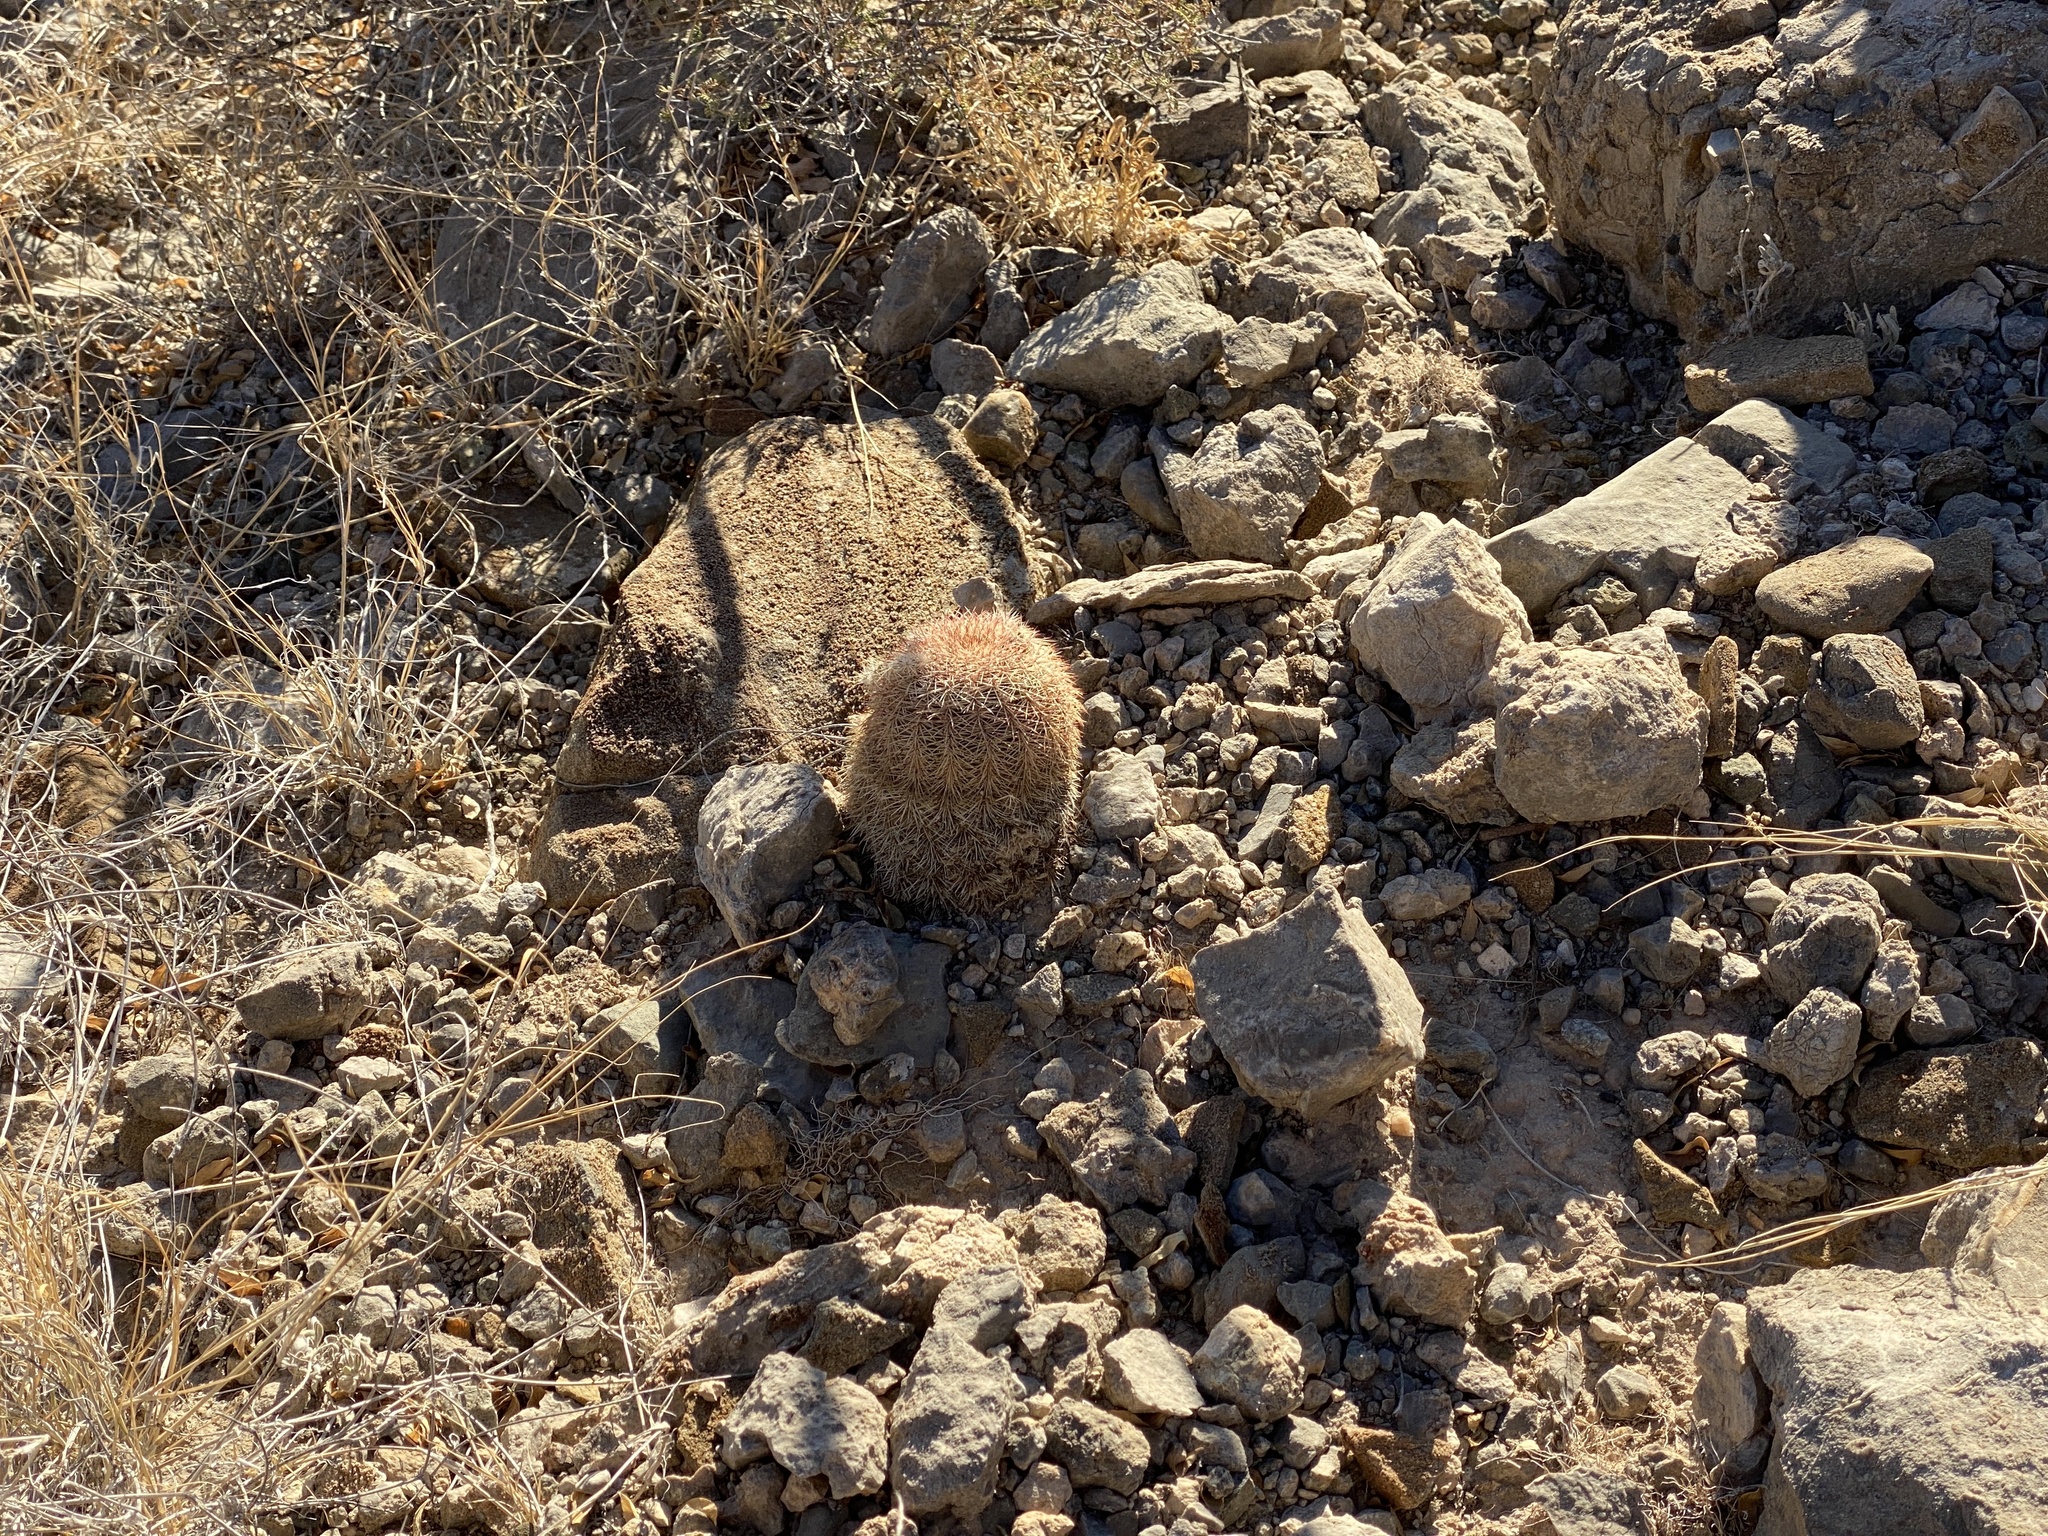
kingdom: Plantae
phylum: Tracheophyta
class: Magnoliopsida
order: Caryophyllales
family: Cactaceae
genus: Echinocereus
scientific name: Echinocereus dasyacanthus
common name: Spiny hedgehog cactus
